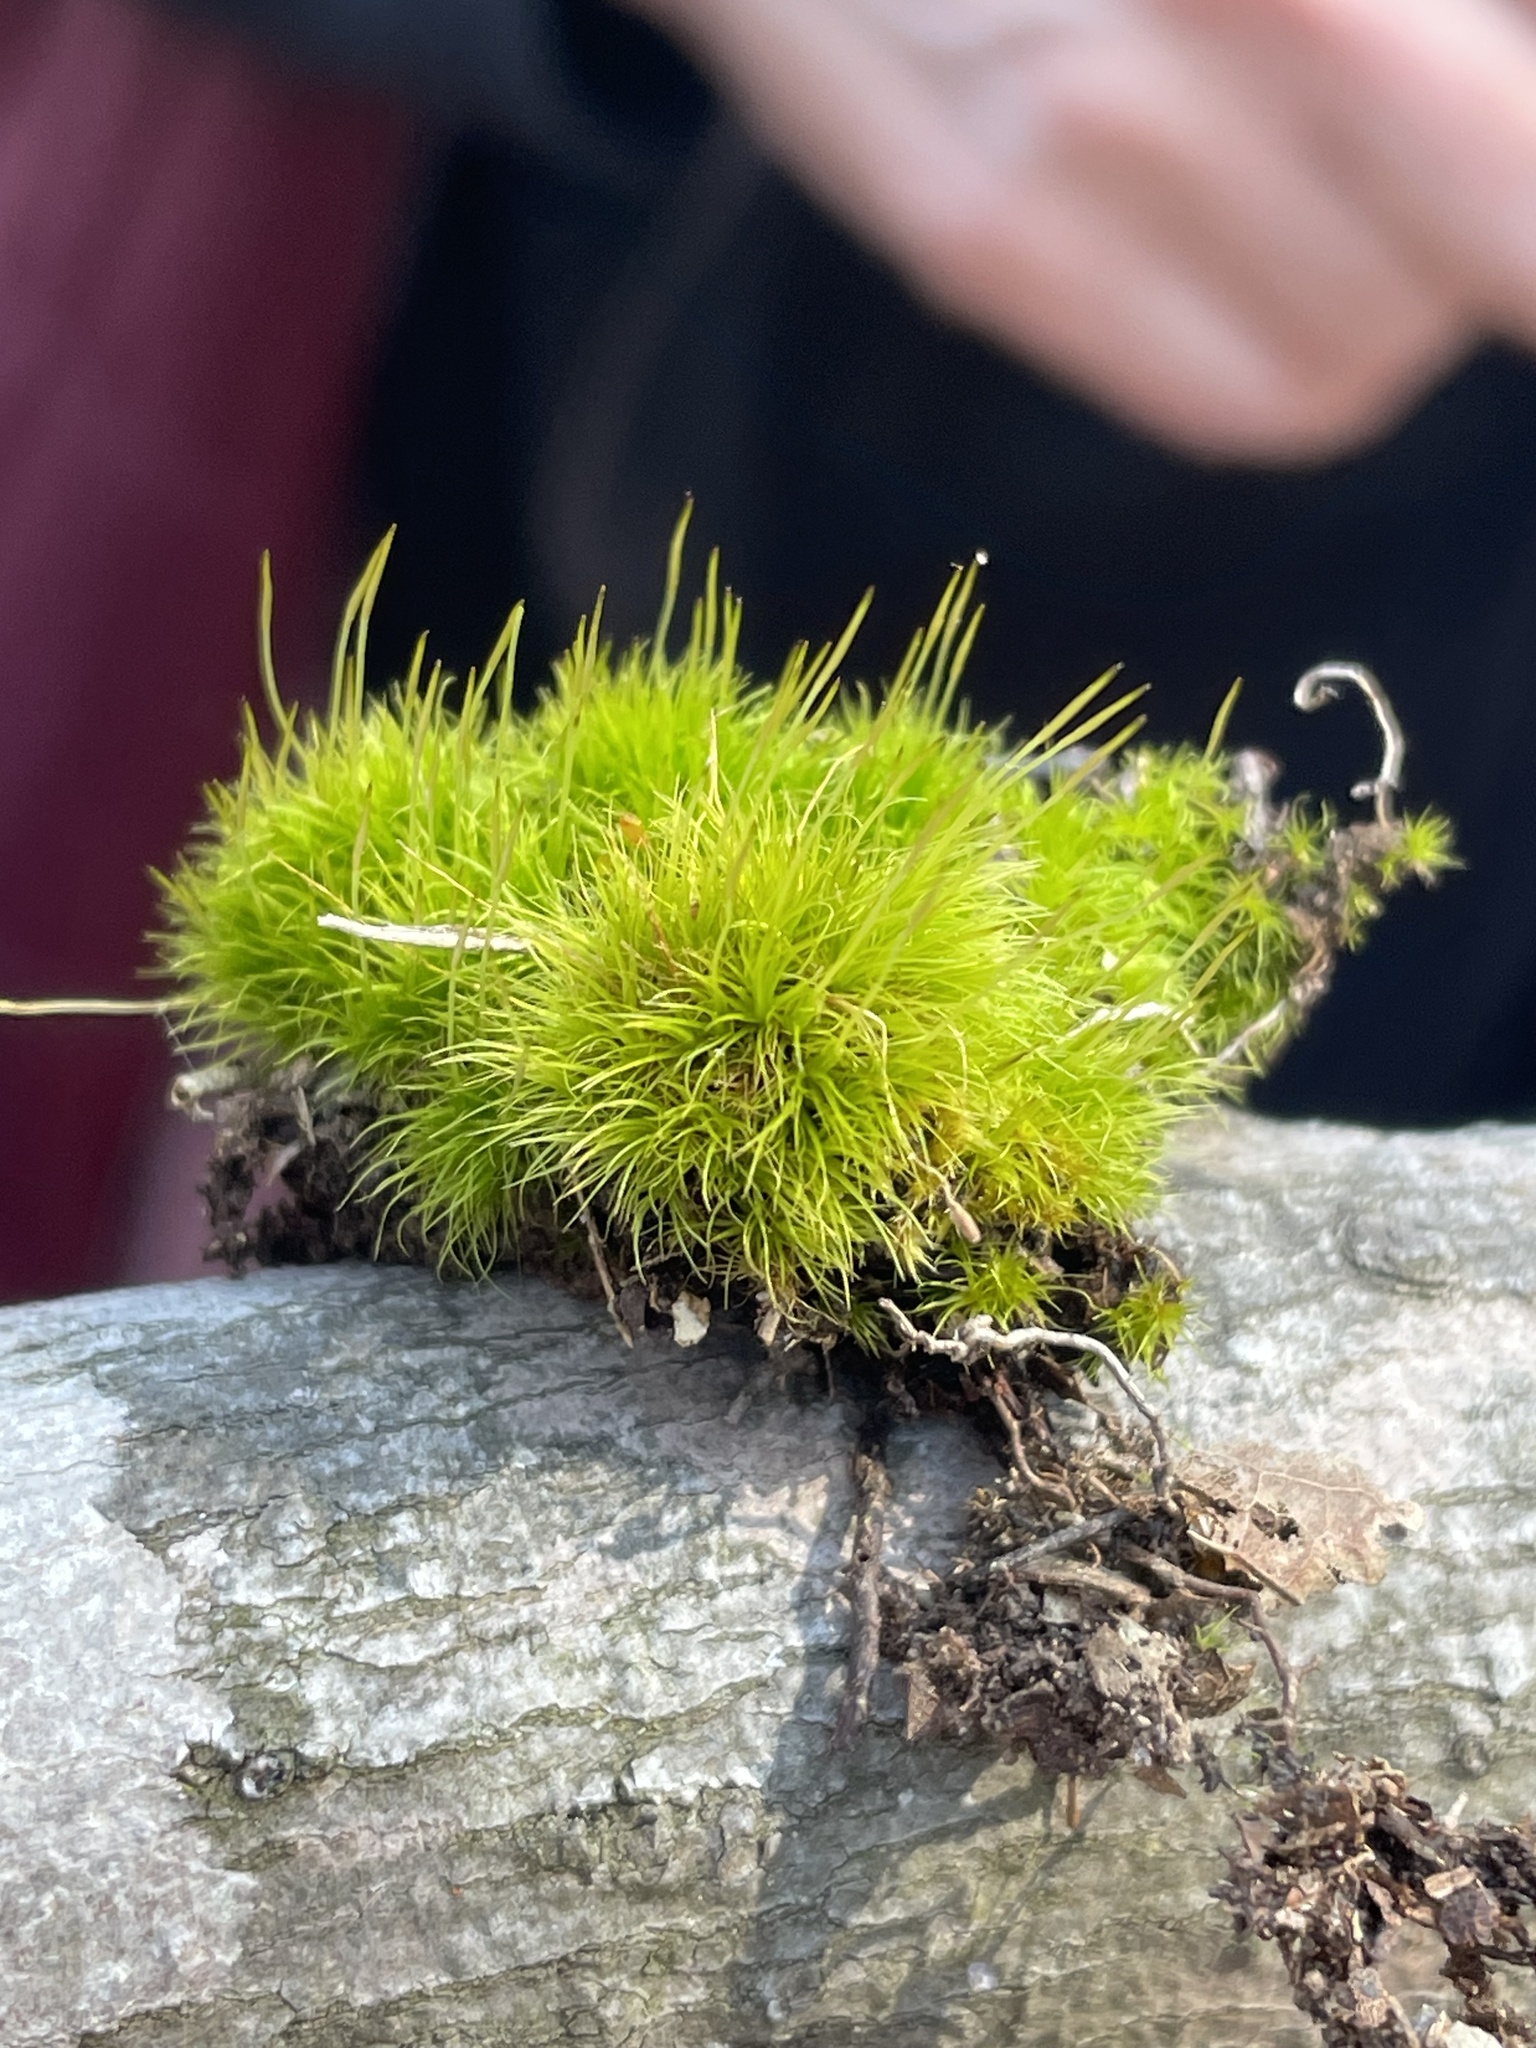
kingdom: Plantae
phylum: Bryophyta
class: Bryopsida
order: Dicranales
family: Ditrichaceae
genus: Ditrichum
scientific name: Ditrichum pallidum
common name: Pale cow-hair moss
